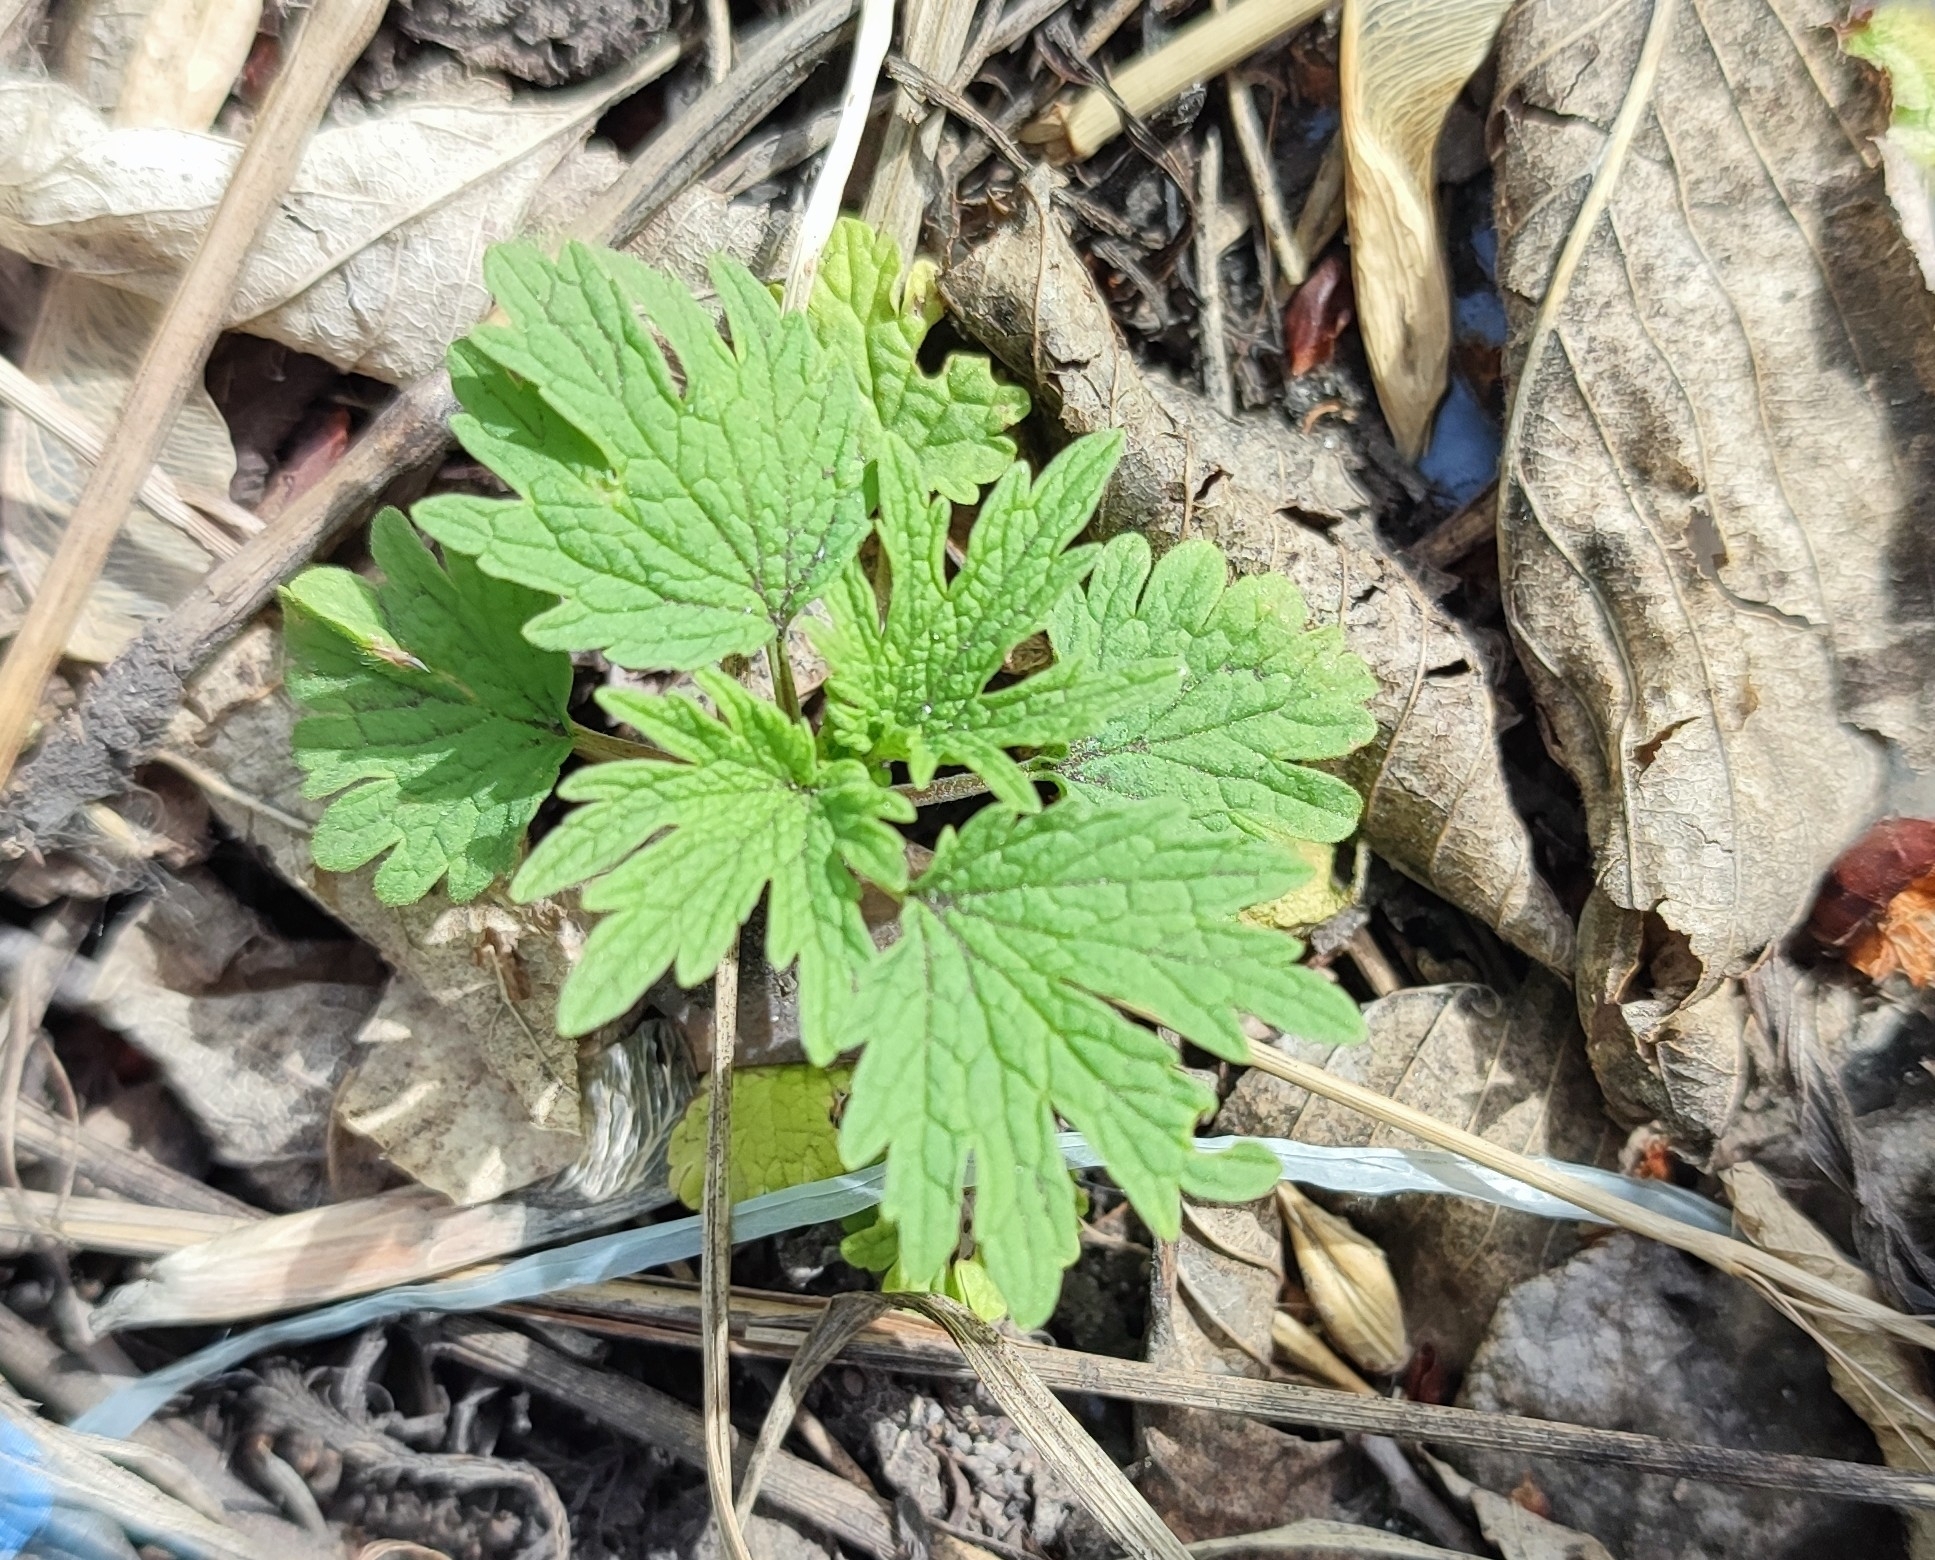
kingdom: Plantae
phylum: Tracheophyta
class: Magnoliopsida
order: Lamiales
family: Lamiaceae
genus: Leonurus
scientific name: Leonurus quinquelobatus
